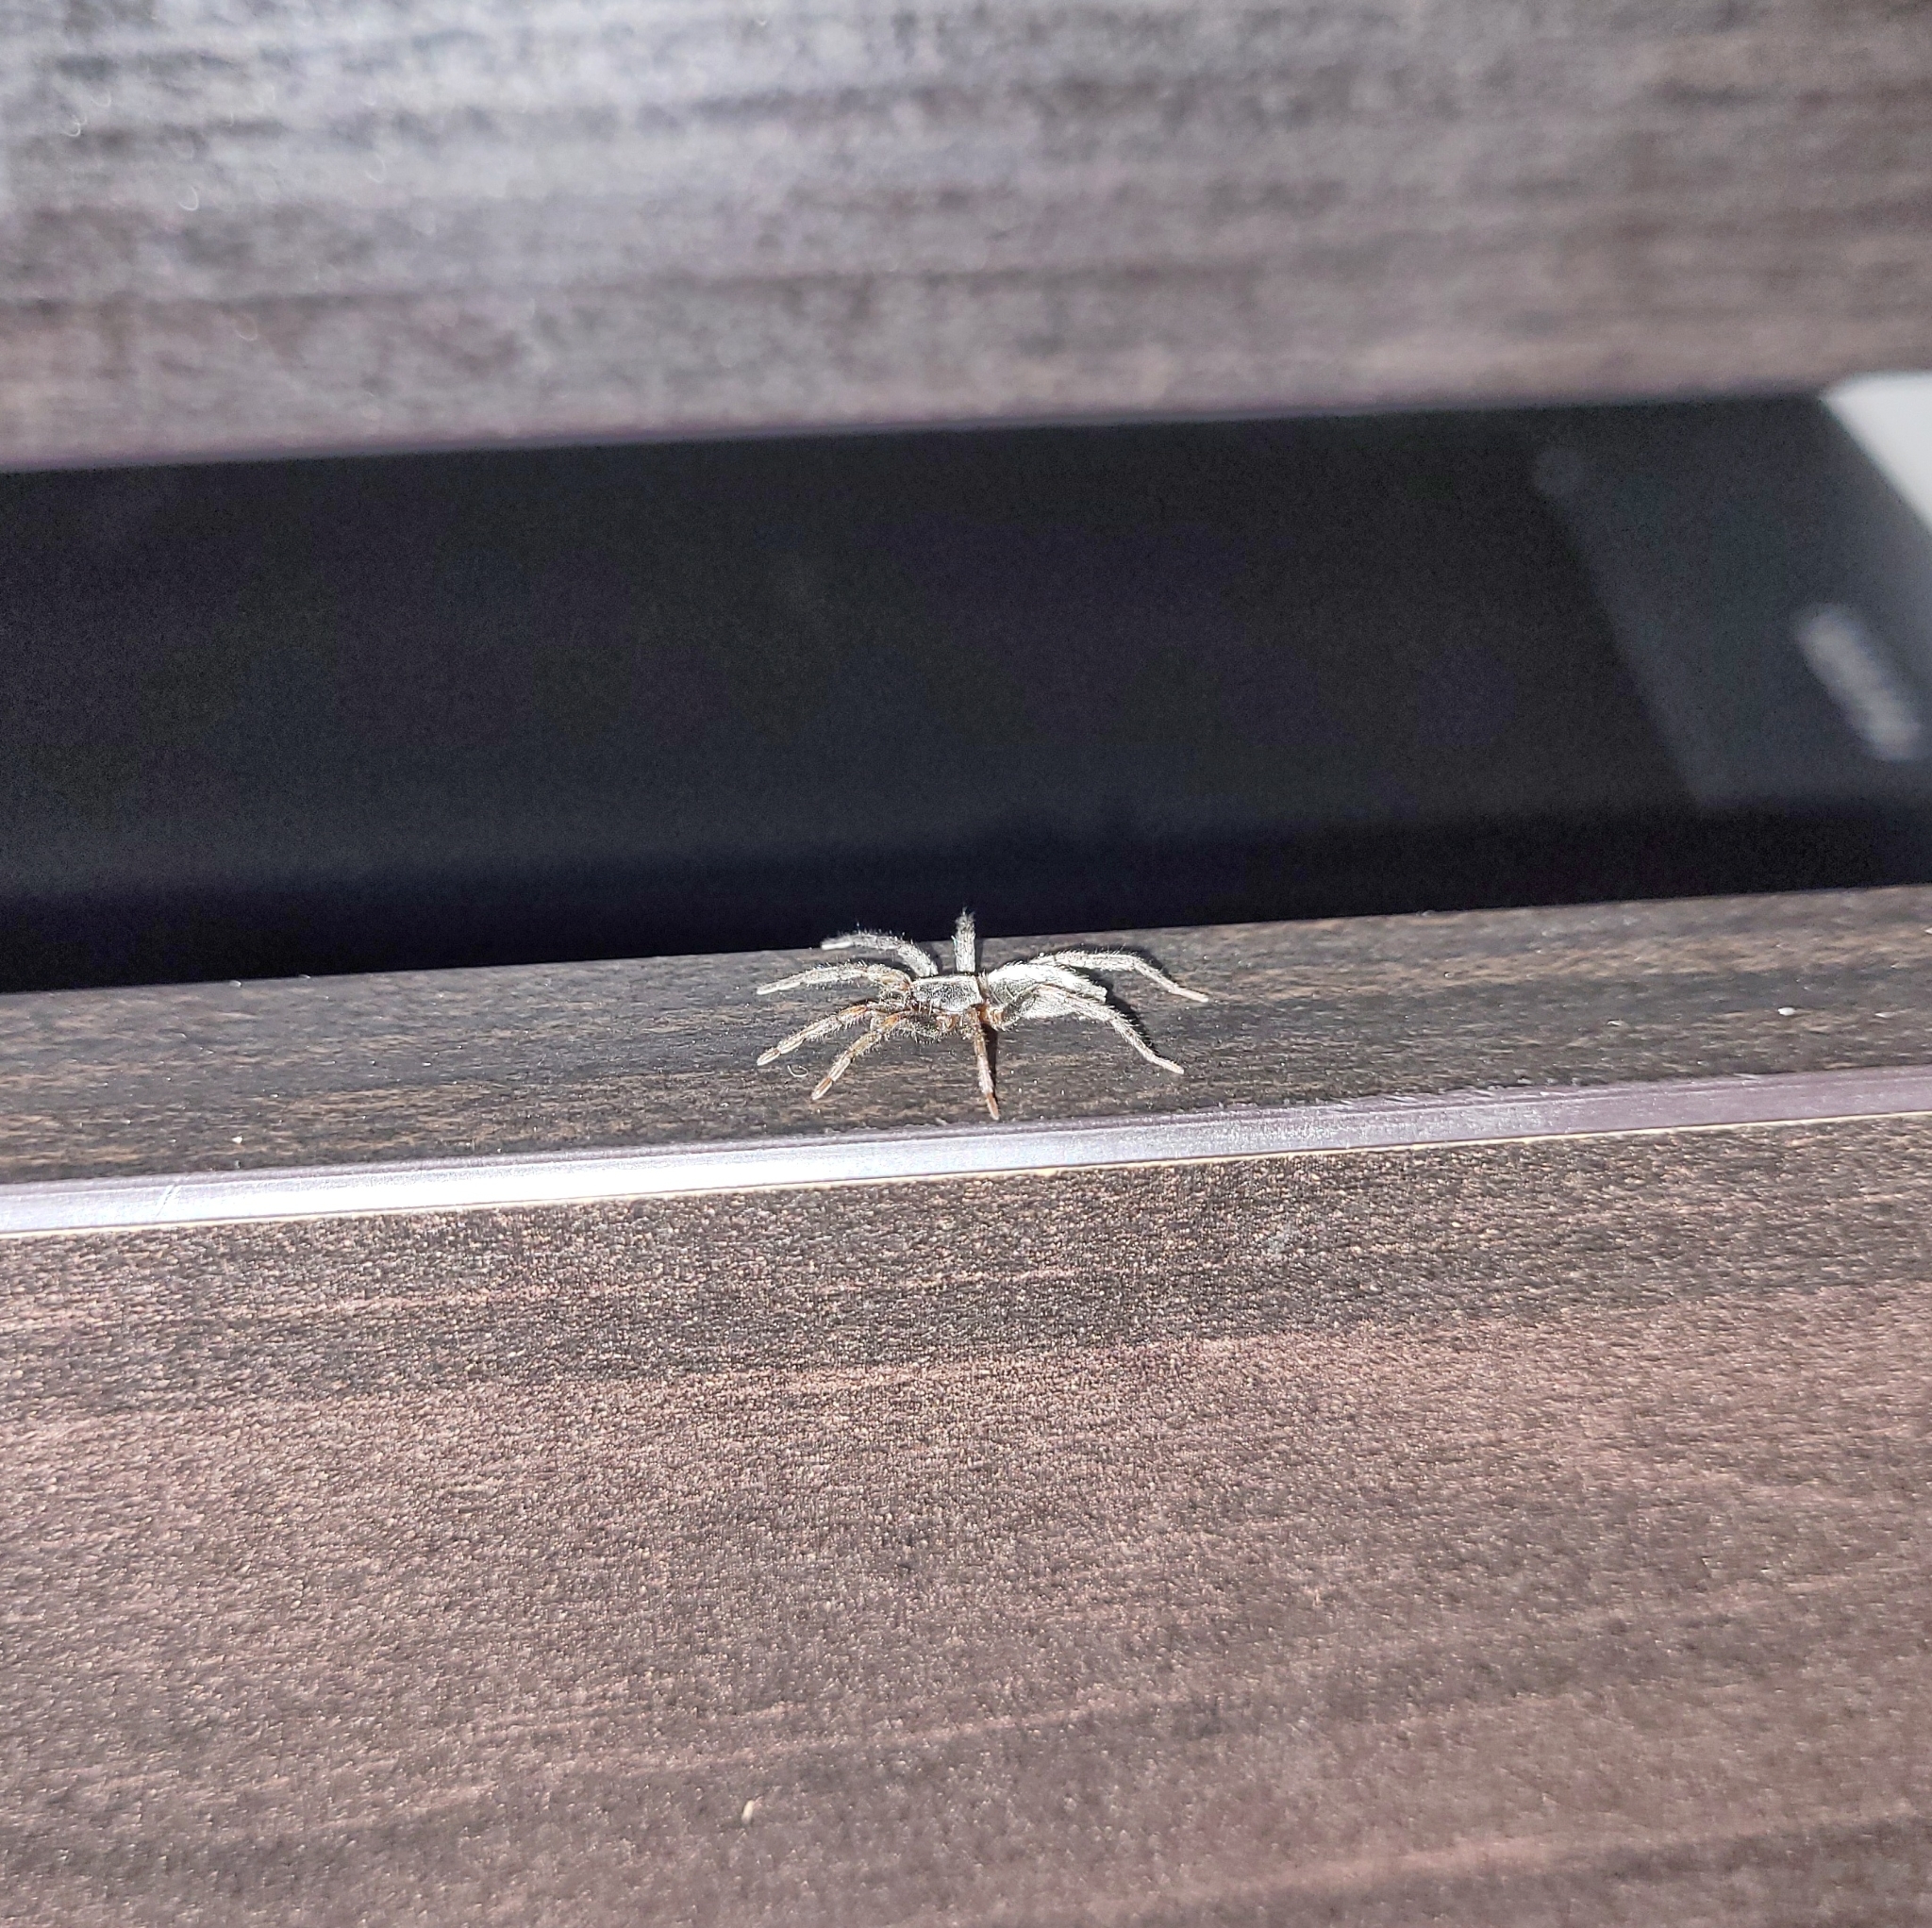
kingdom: Animalia
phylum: Arthropoda
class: Arachnida
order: Araneae
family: Gnaphosidae
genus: Herpyllus
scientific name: Herpyllus ecclesiasticus
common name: Eastern parson spider
